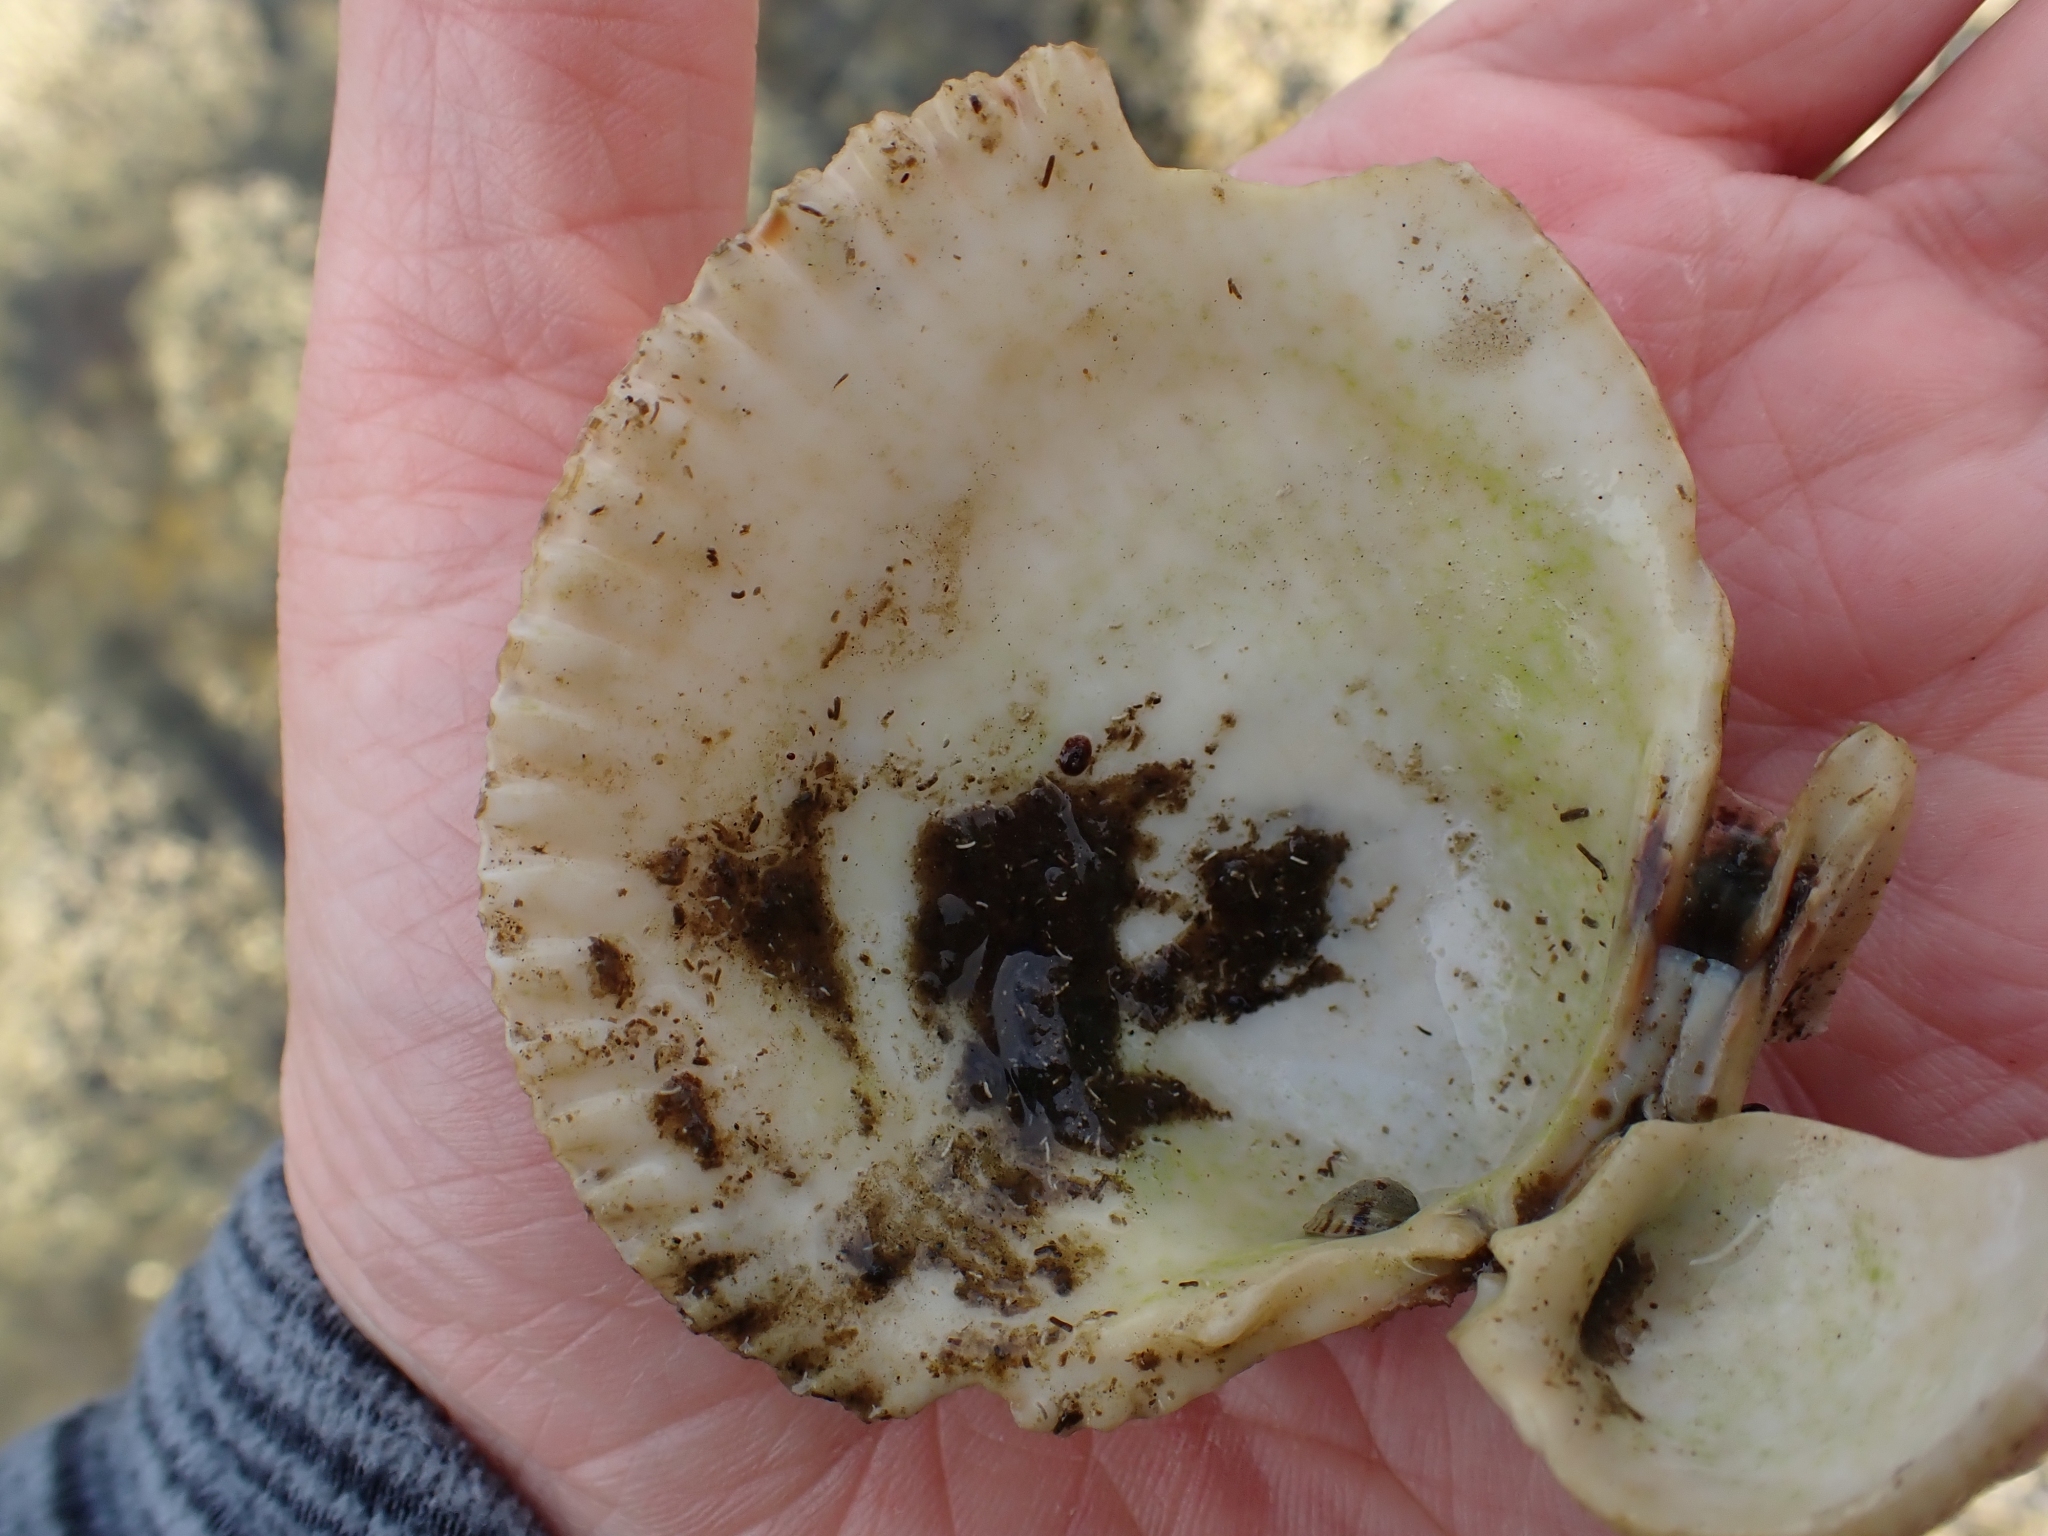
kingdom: Animalia
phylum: Mollusca
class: Bivalvia
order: Cardiida
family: Cardiidae
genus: Clinocardium
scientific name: Clinocardium nuttallii
